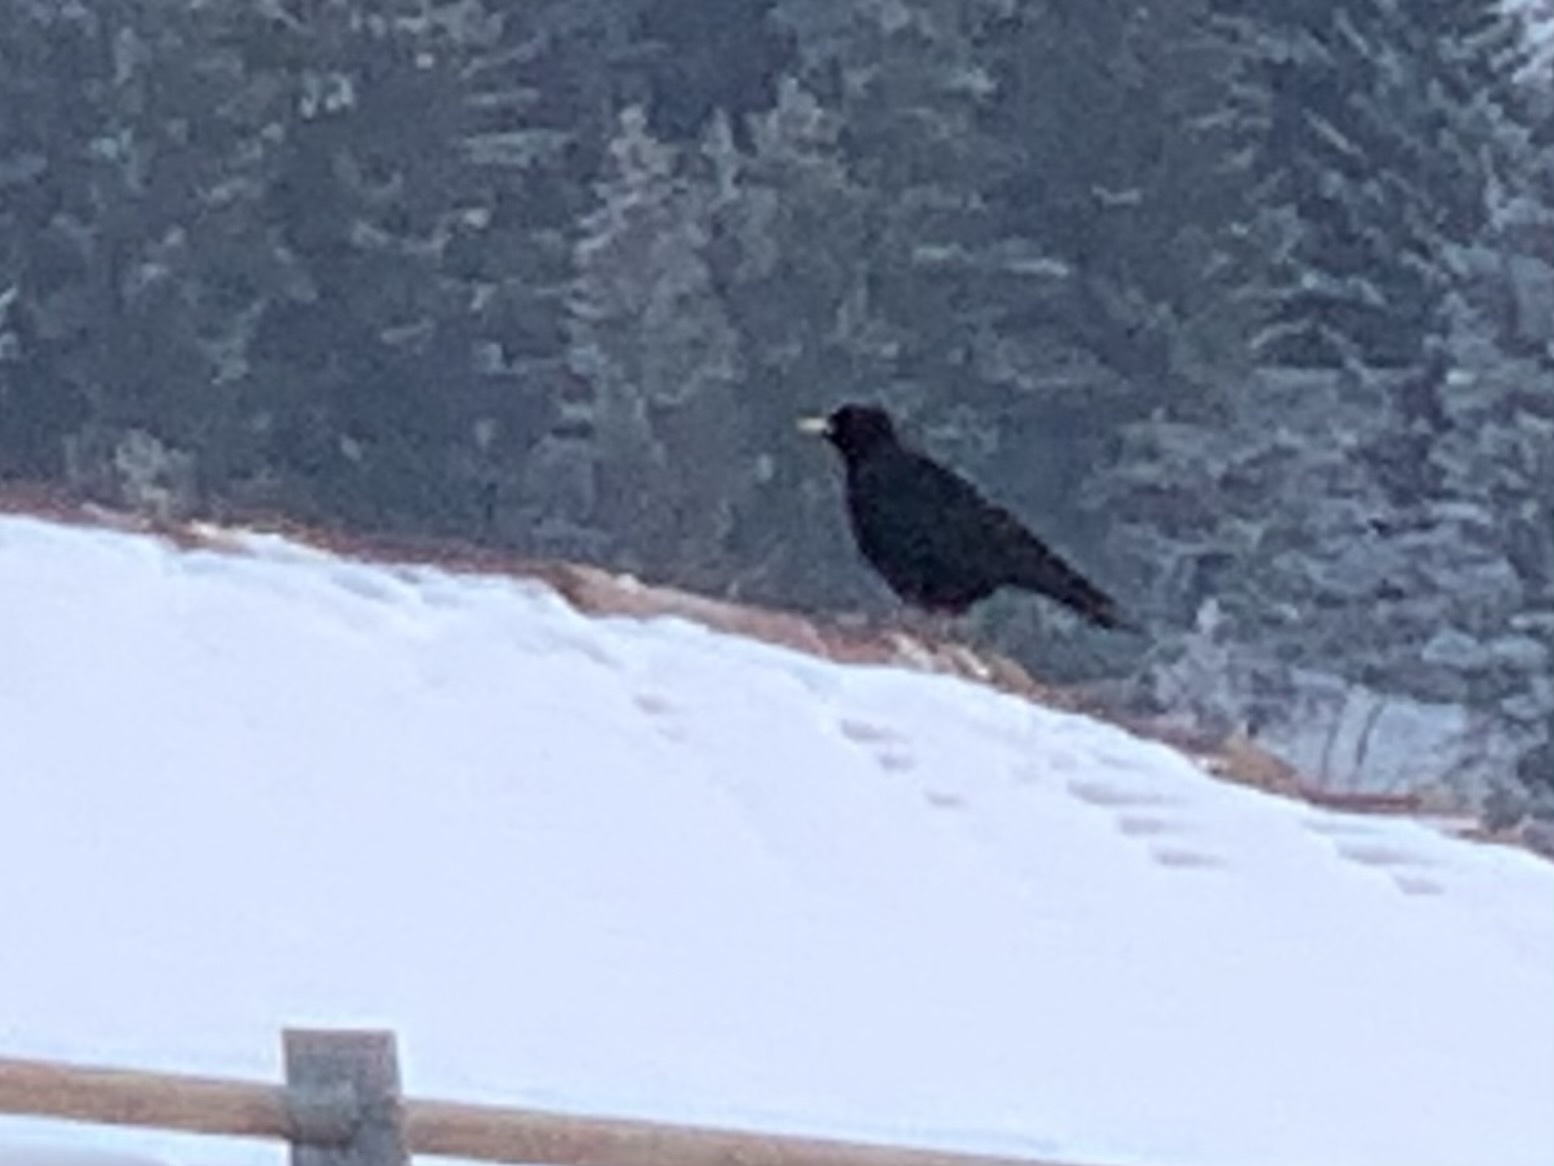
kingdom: Animalia
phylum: Chordata
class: Aves
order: Passeriformes
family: Corvidae
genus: Pyrrhocorax
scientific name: Pyrrhocorax graculus
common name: Alpine chough
